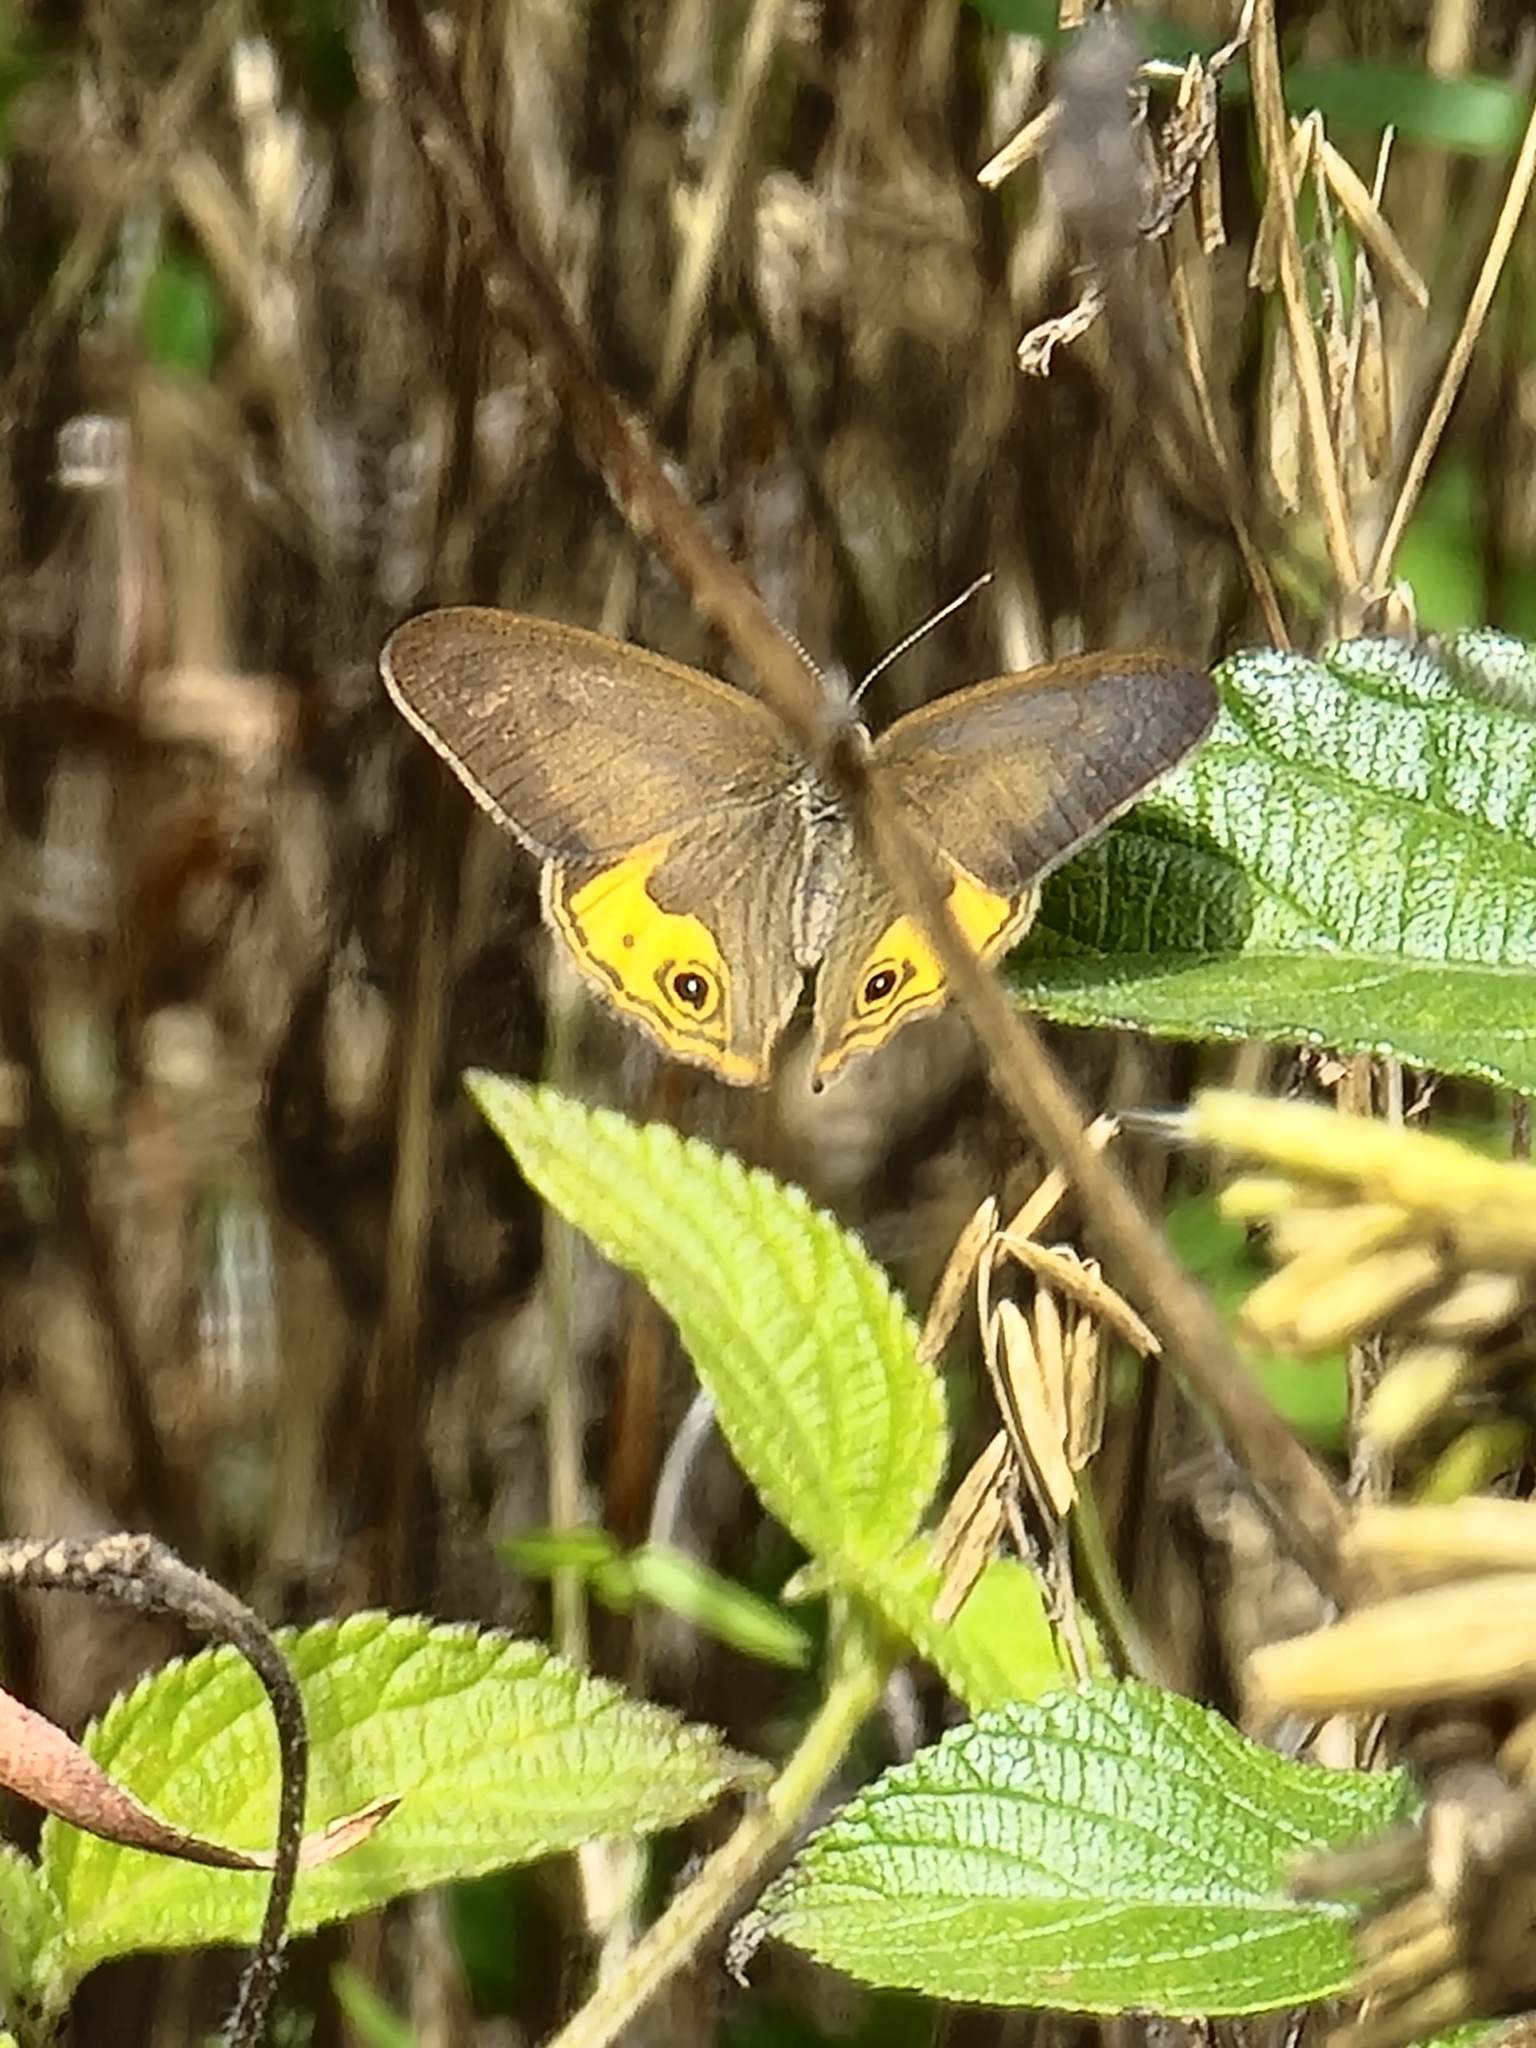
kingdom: Animalia
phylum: Arthropoda
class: Insecta
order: Lepidoptera
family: Nymphalidae
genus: Hypocysta
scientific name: Hypocysta metirius
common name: Brown ringlet
